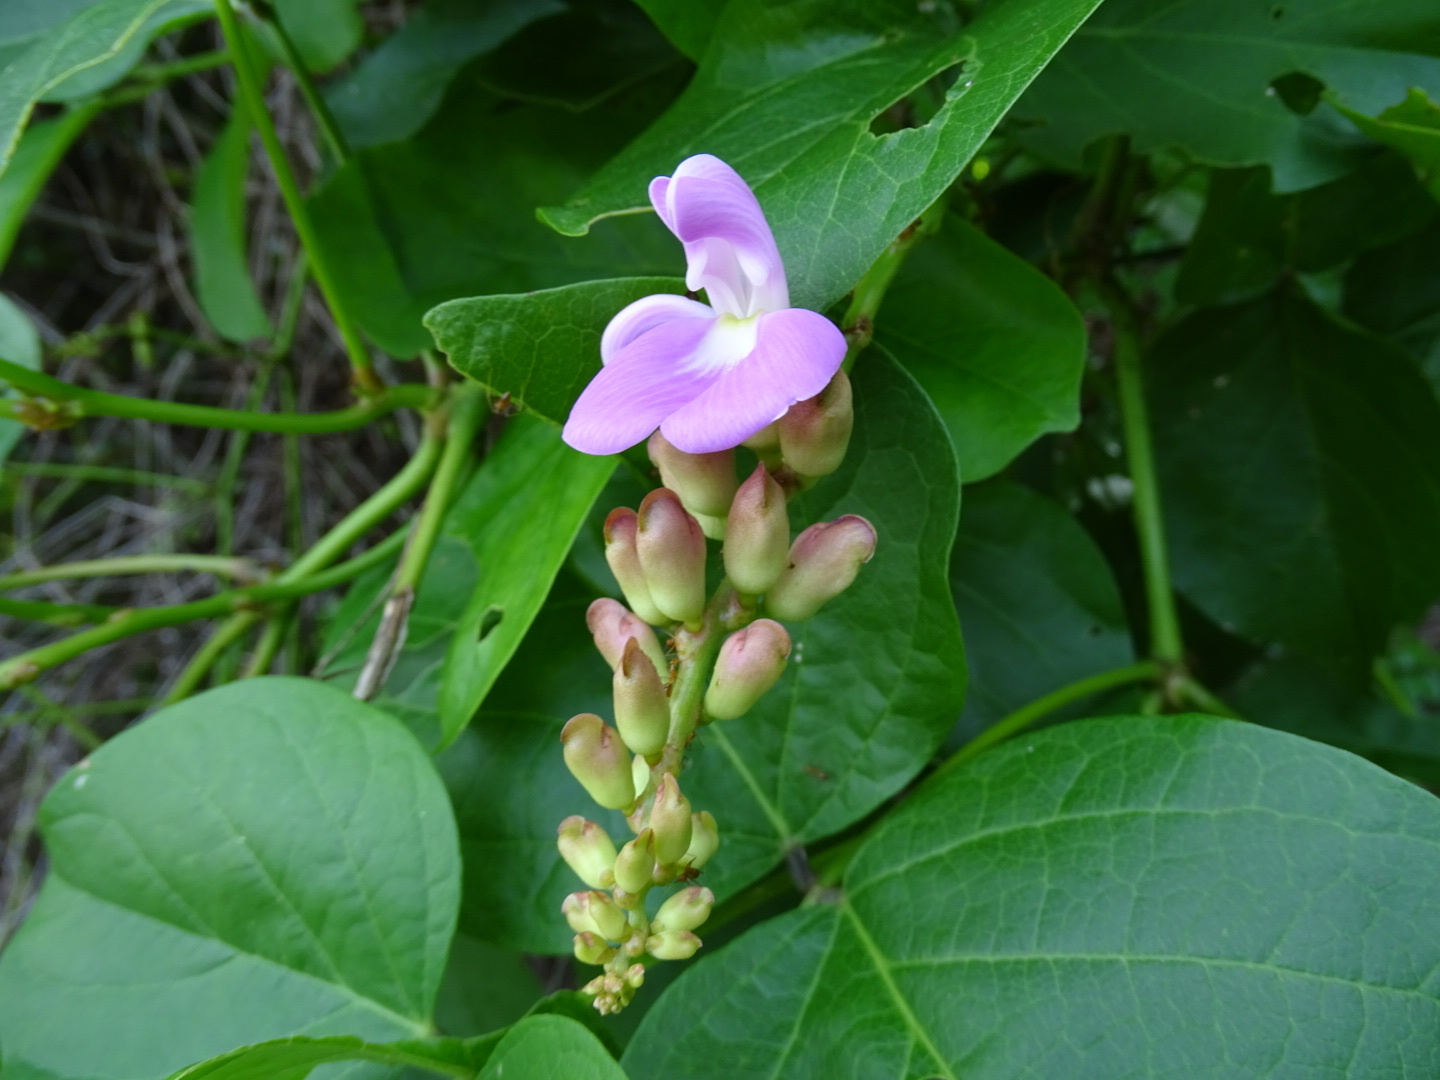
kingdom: Plantae
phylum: Tracheophyta
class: Magnoliopsida
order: Fabales
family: Fabaceae
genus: Canavalia
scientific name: Canavalia rosea
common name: Beach-bean
